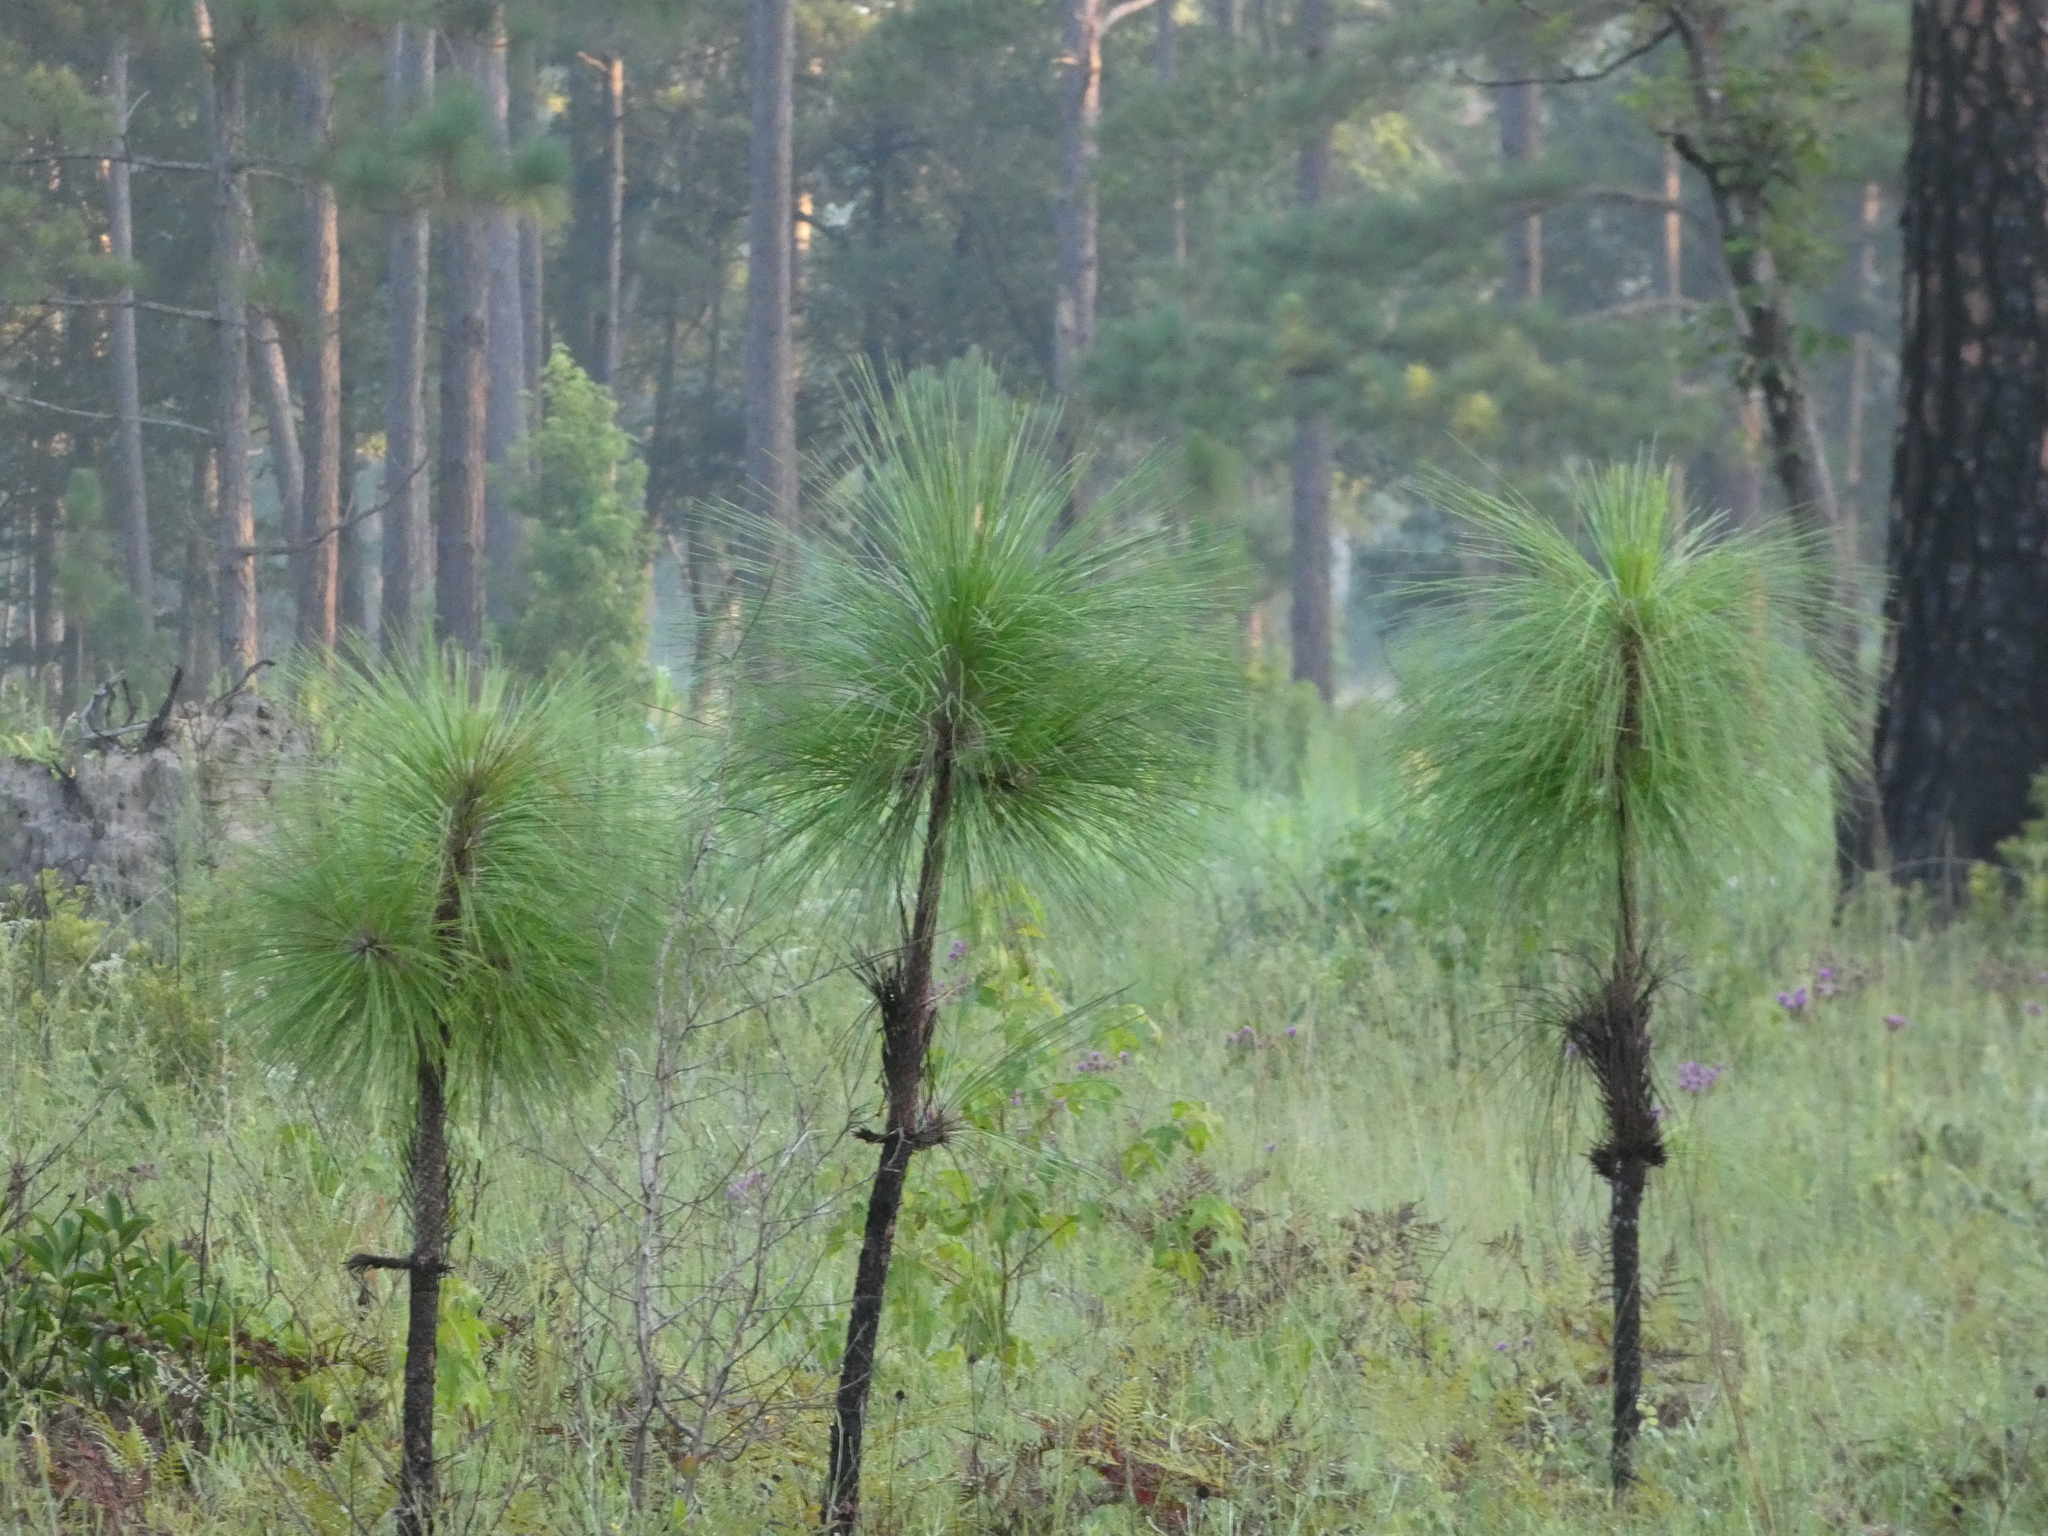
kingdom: Plantae
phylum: Tracheophyta
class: Pinopsida
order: Pinales
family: Pinaceae
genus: Pinus
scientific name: Pinus palustris
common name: Longleaf pine
